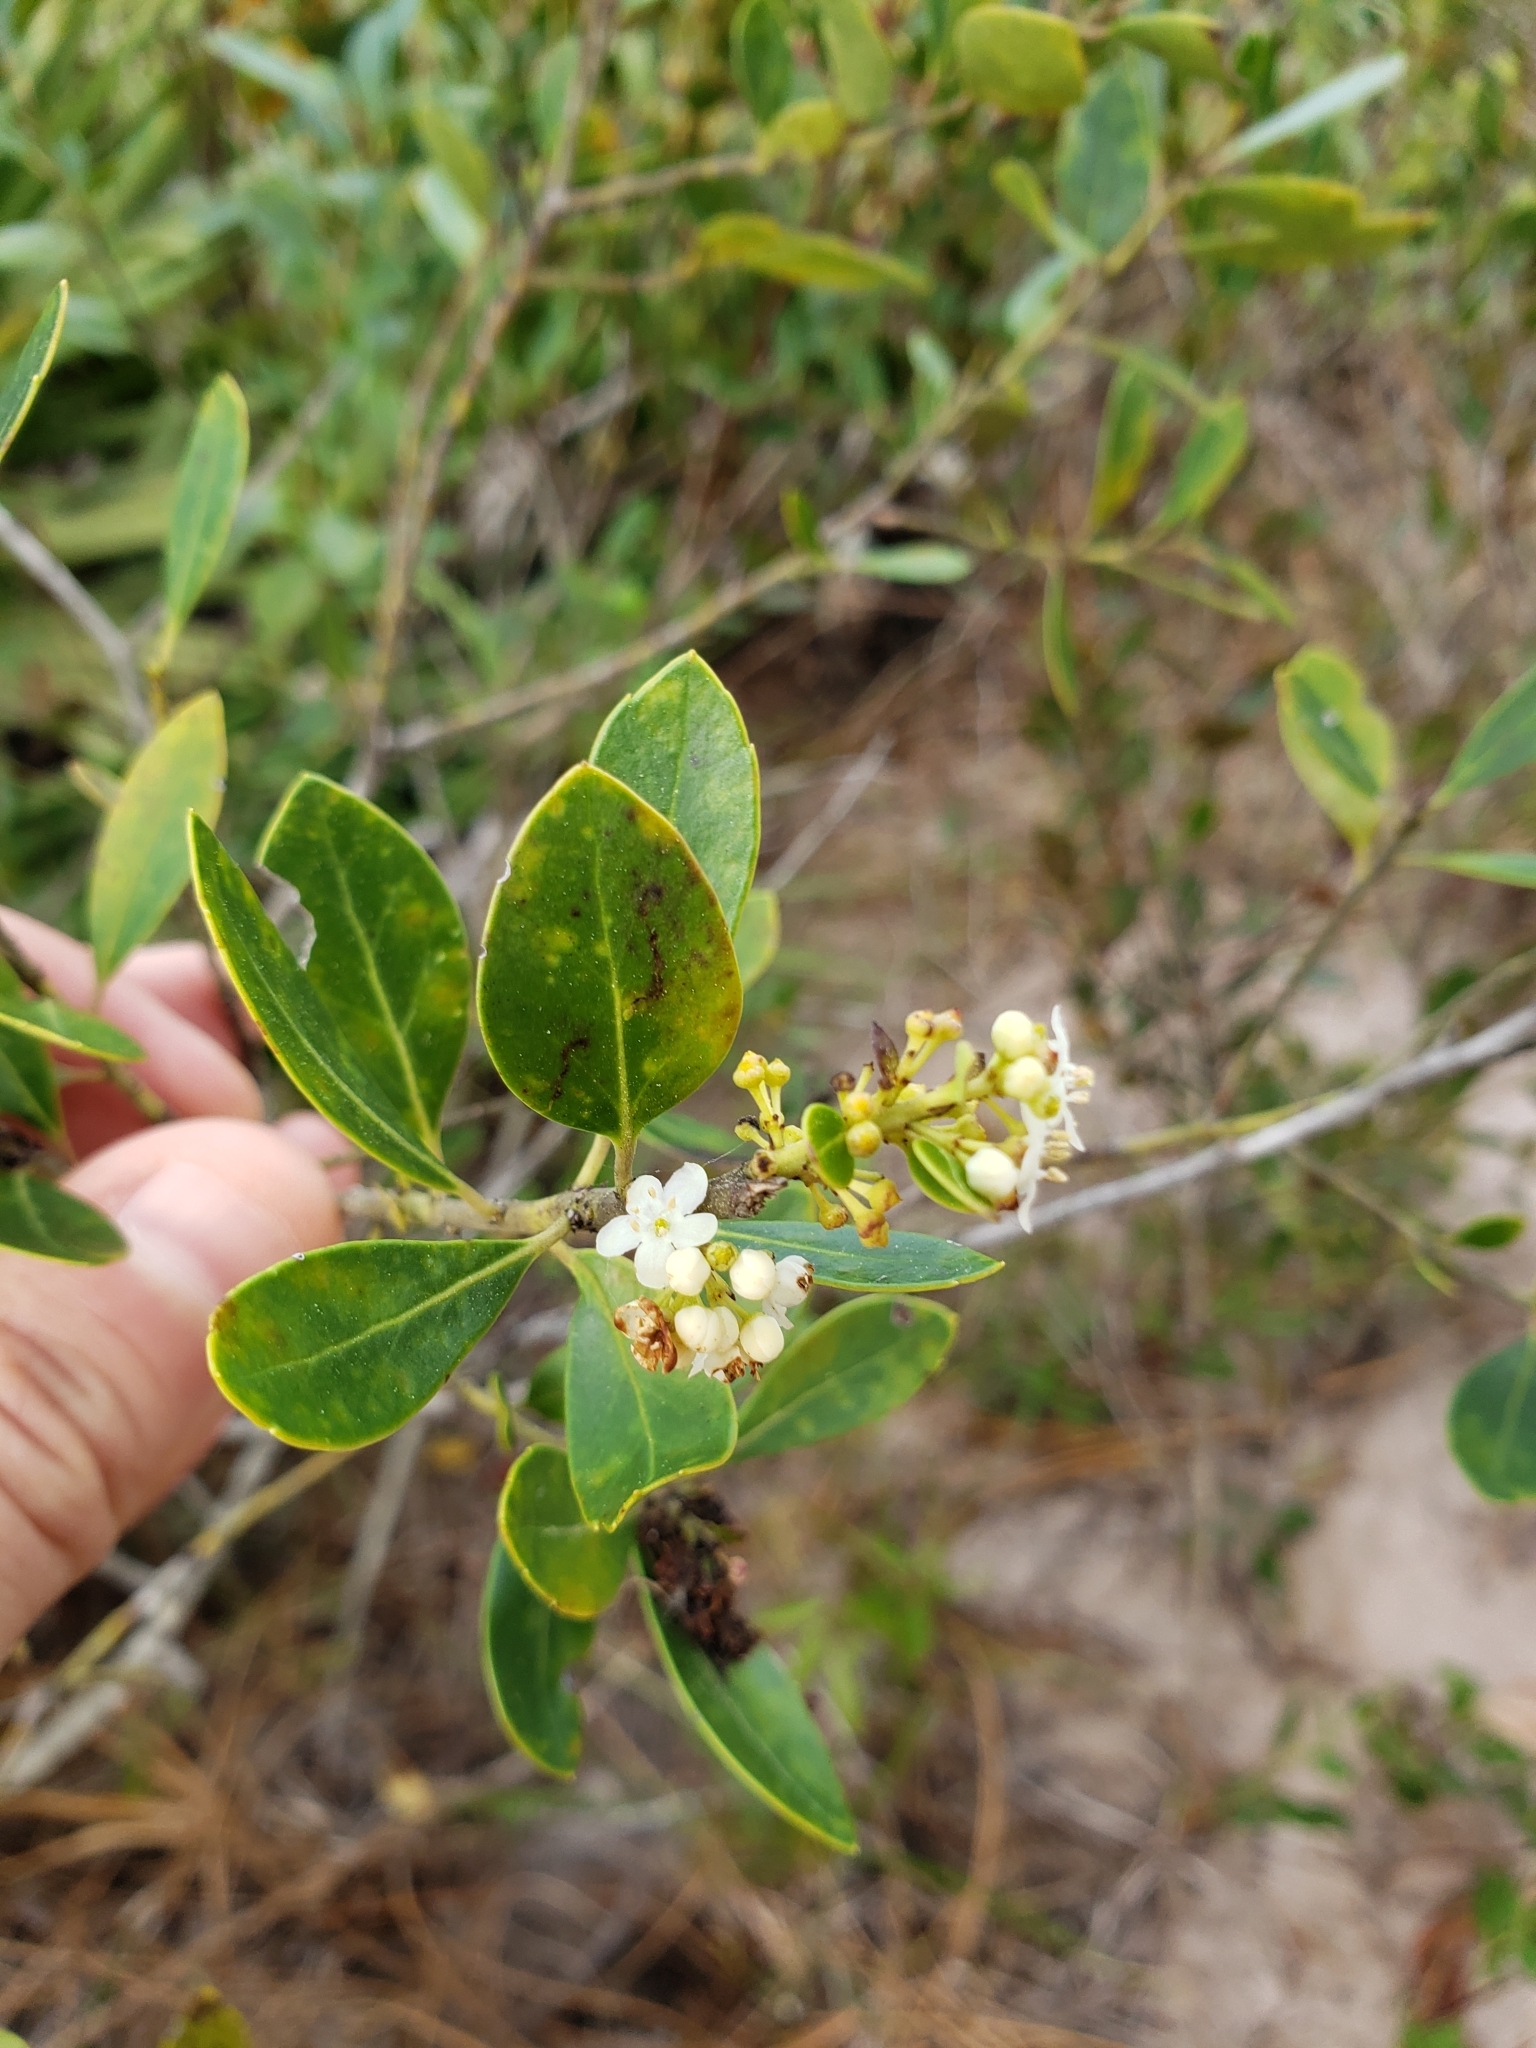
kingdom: Plantae
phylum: Tracheophyta
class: Magnoliopsida
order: Aquifoliales
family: Aquifoliaceae
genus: Ilex
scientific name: Ilex glabra
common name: Bitter gallberry
